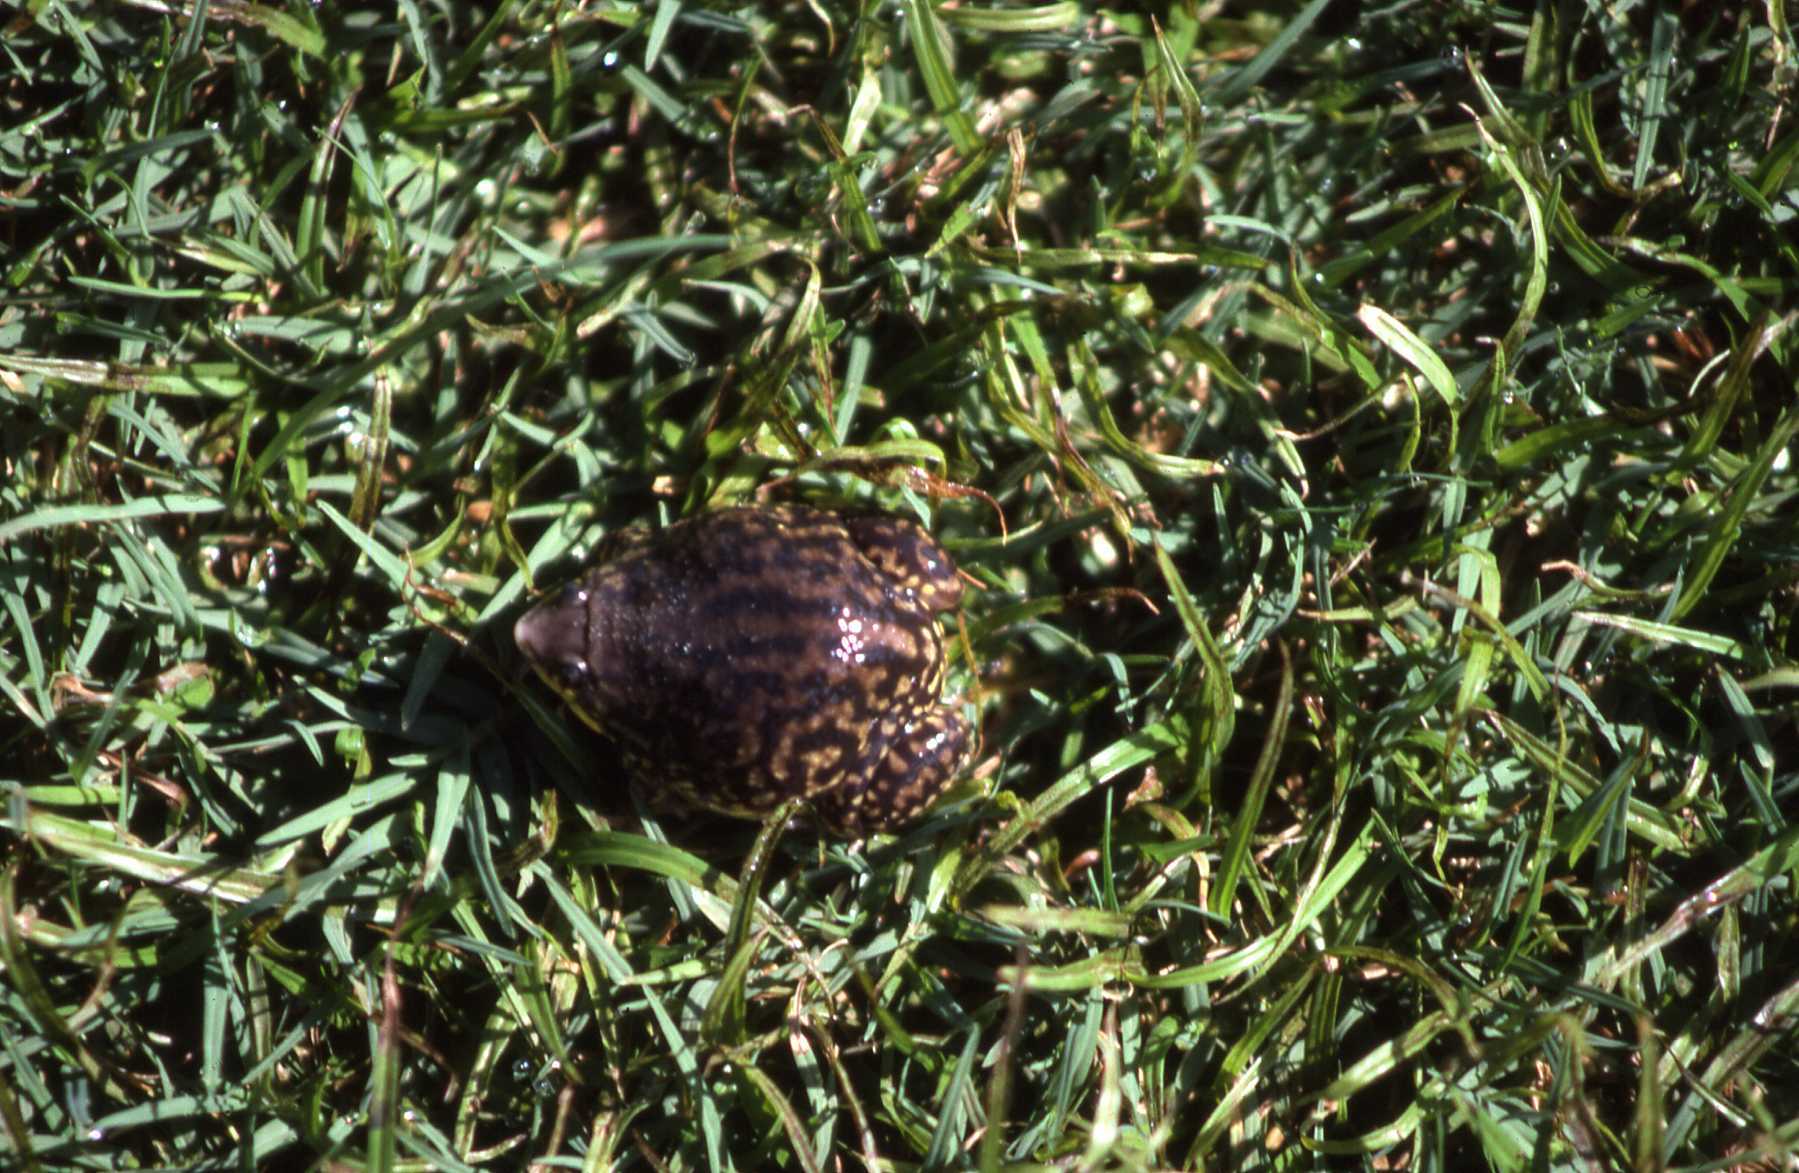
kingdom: Animalia
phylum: Chordata
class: Amphibia
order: Anura
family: Hemisotidae
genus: Hemisus
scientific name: Hemisus marmoratus
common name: Mottled shovel-nosed frog
